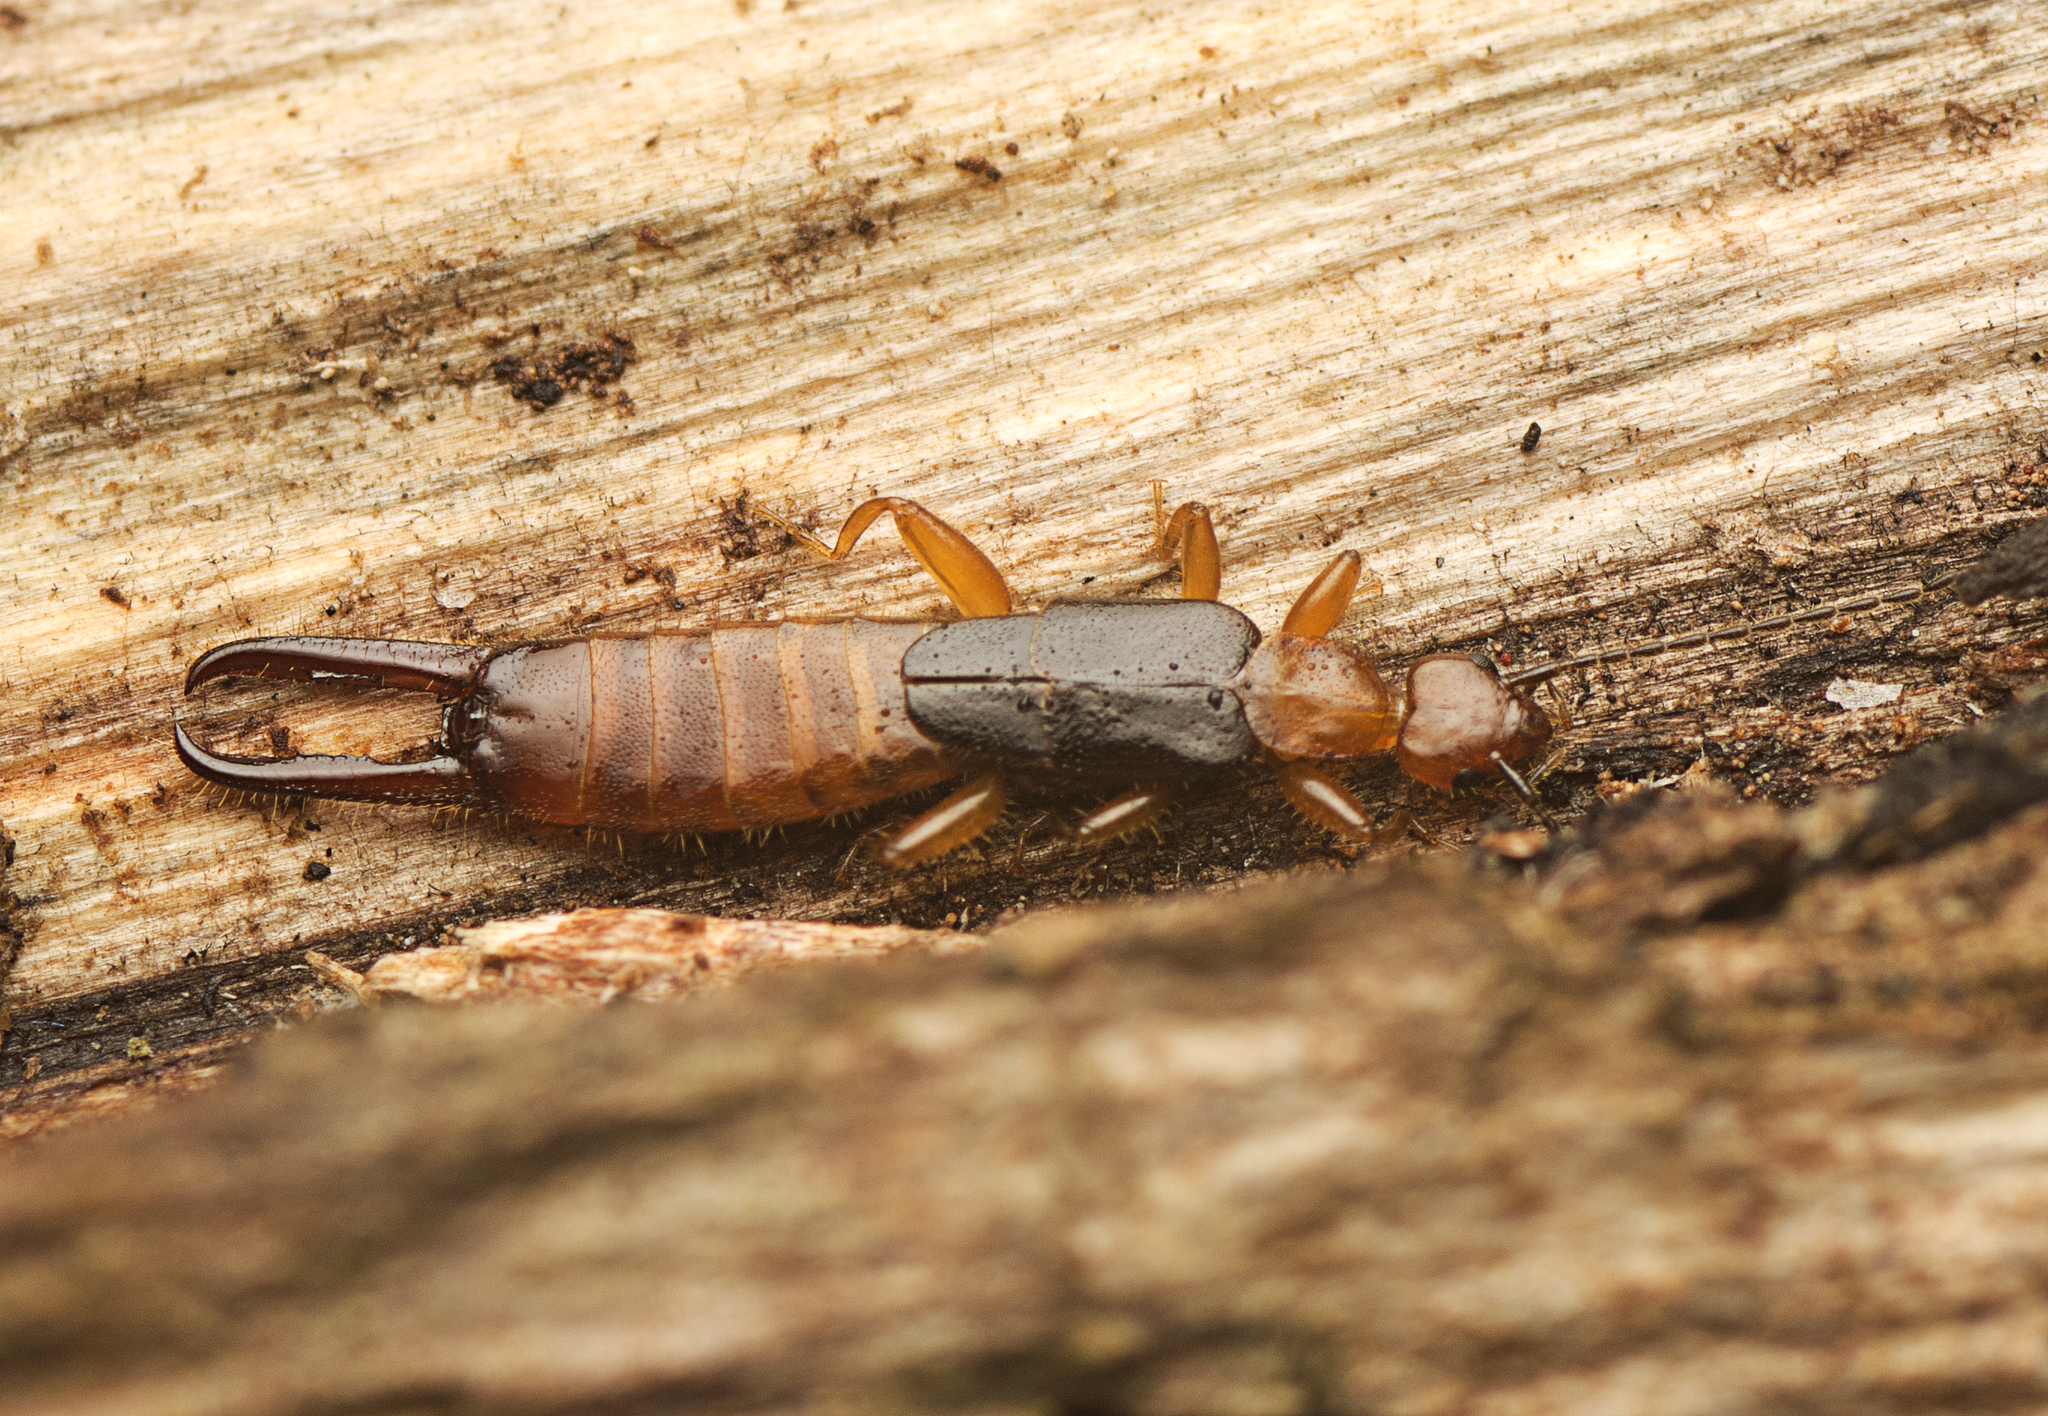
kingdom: Animalia
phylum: Arthropoda
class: Insecta
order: Dermaptera
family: Spongiphoridae
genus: Paraspania
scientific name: Paraspania brunneri
